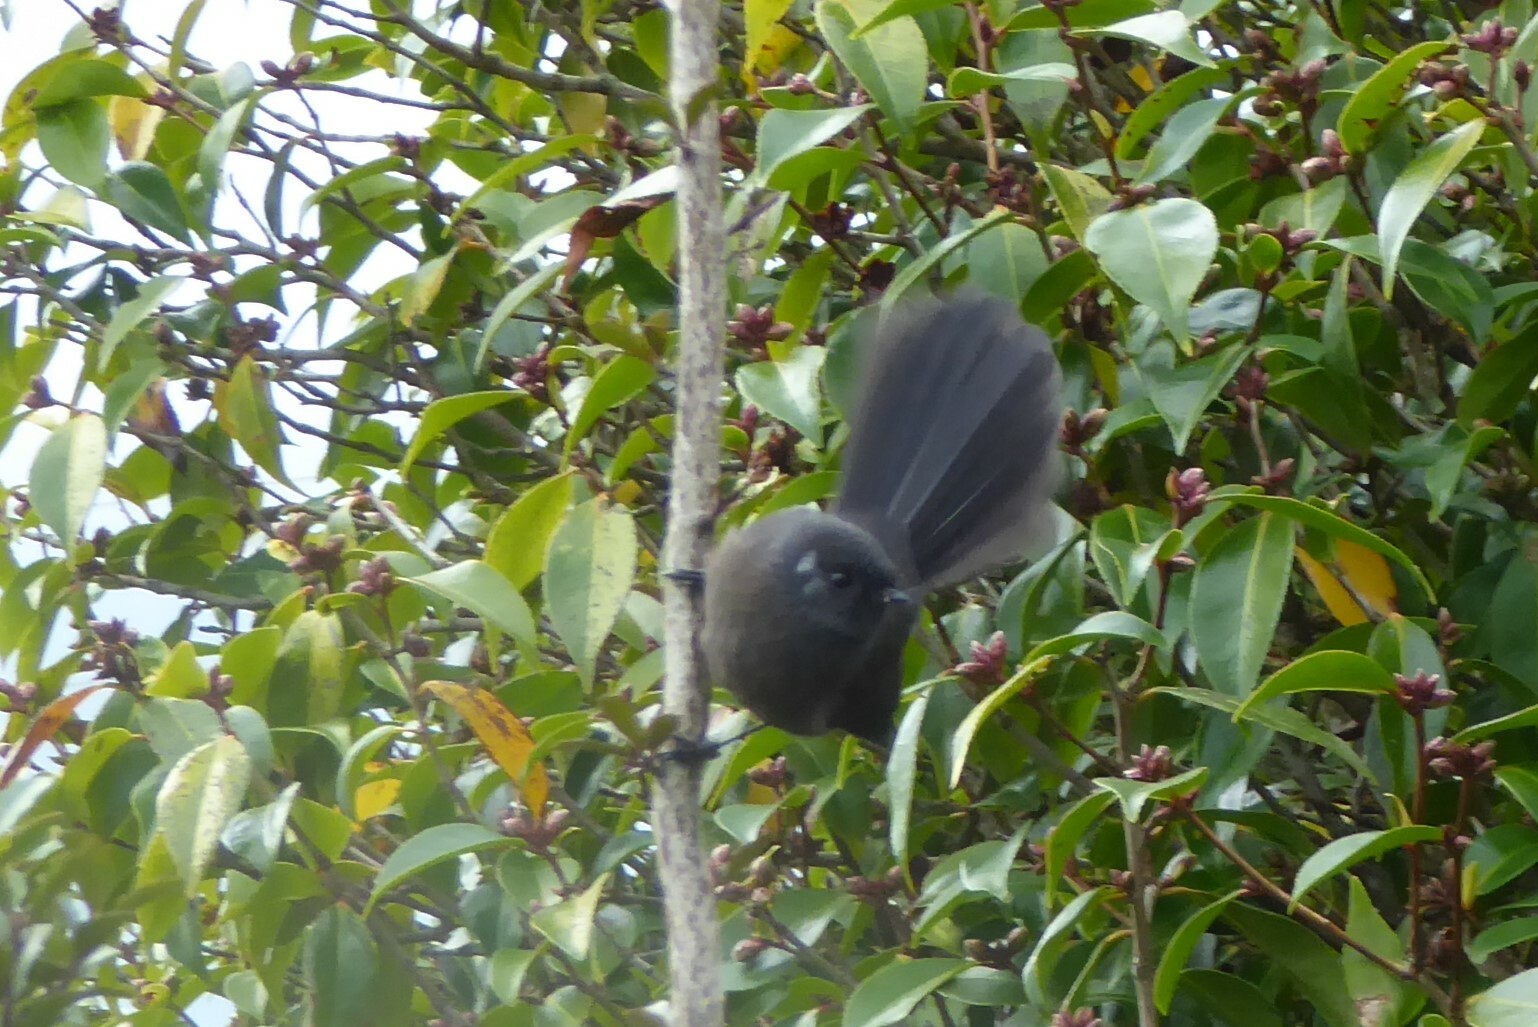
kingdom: Animalia
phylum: Chordata
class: Aves
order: Passeriformes
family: Rhipiduridae
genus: Rhipidura
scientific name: Rhipidura fuliginosa
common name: New zealand fantail
